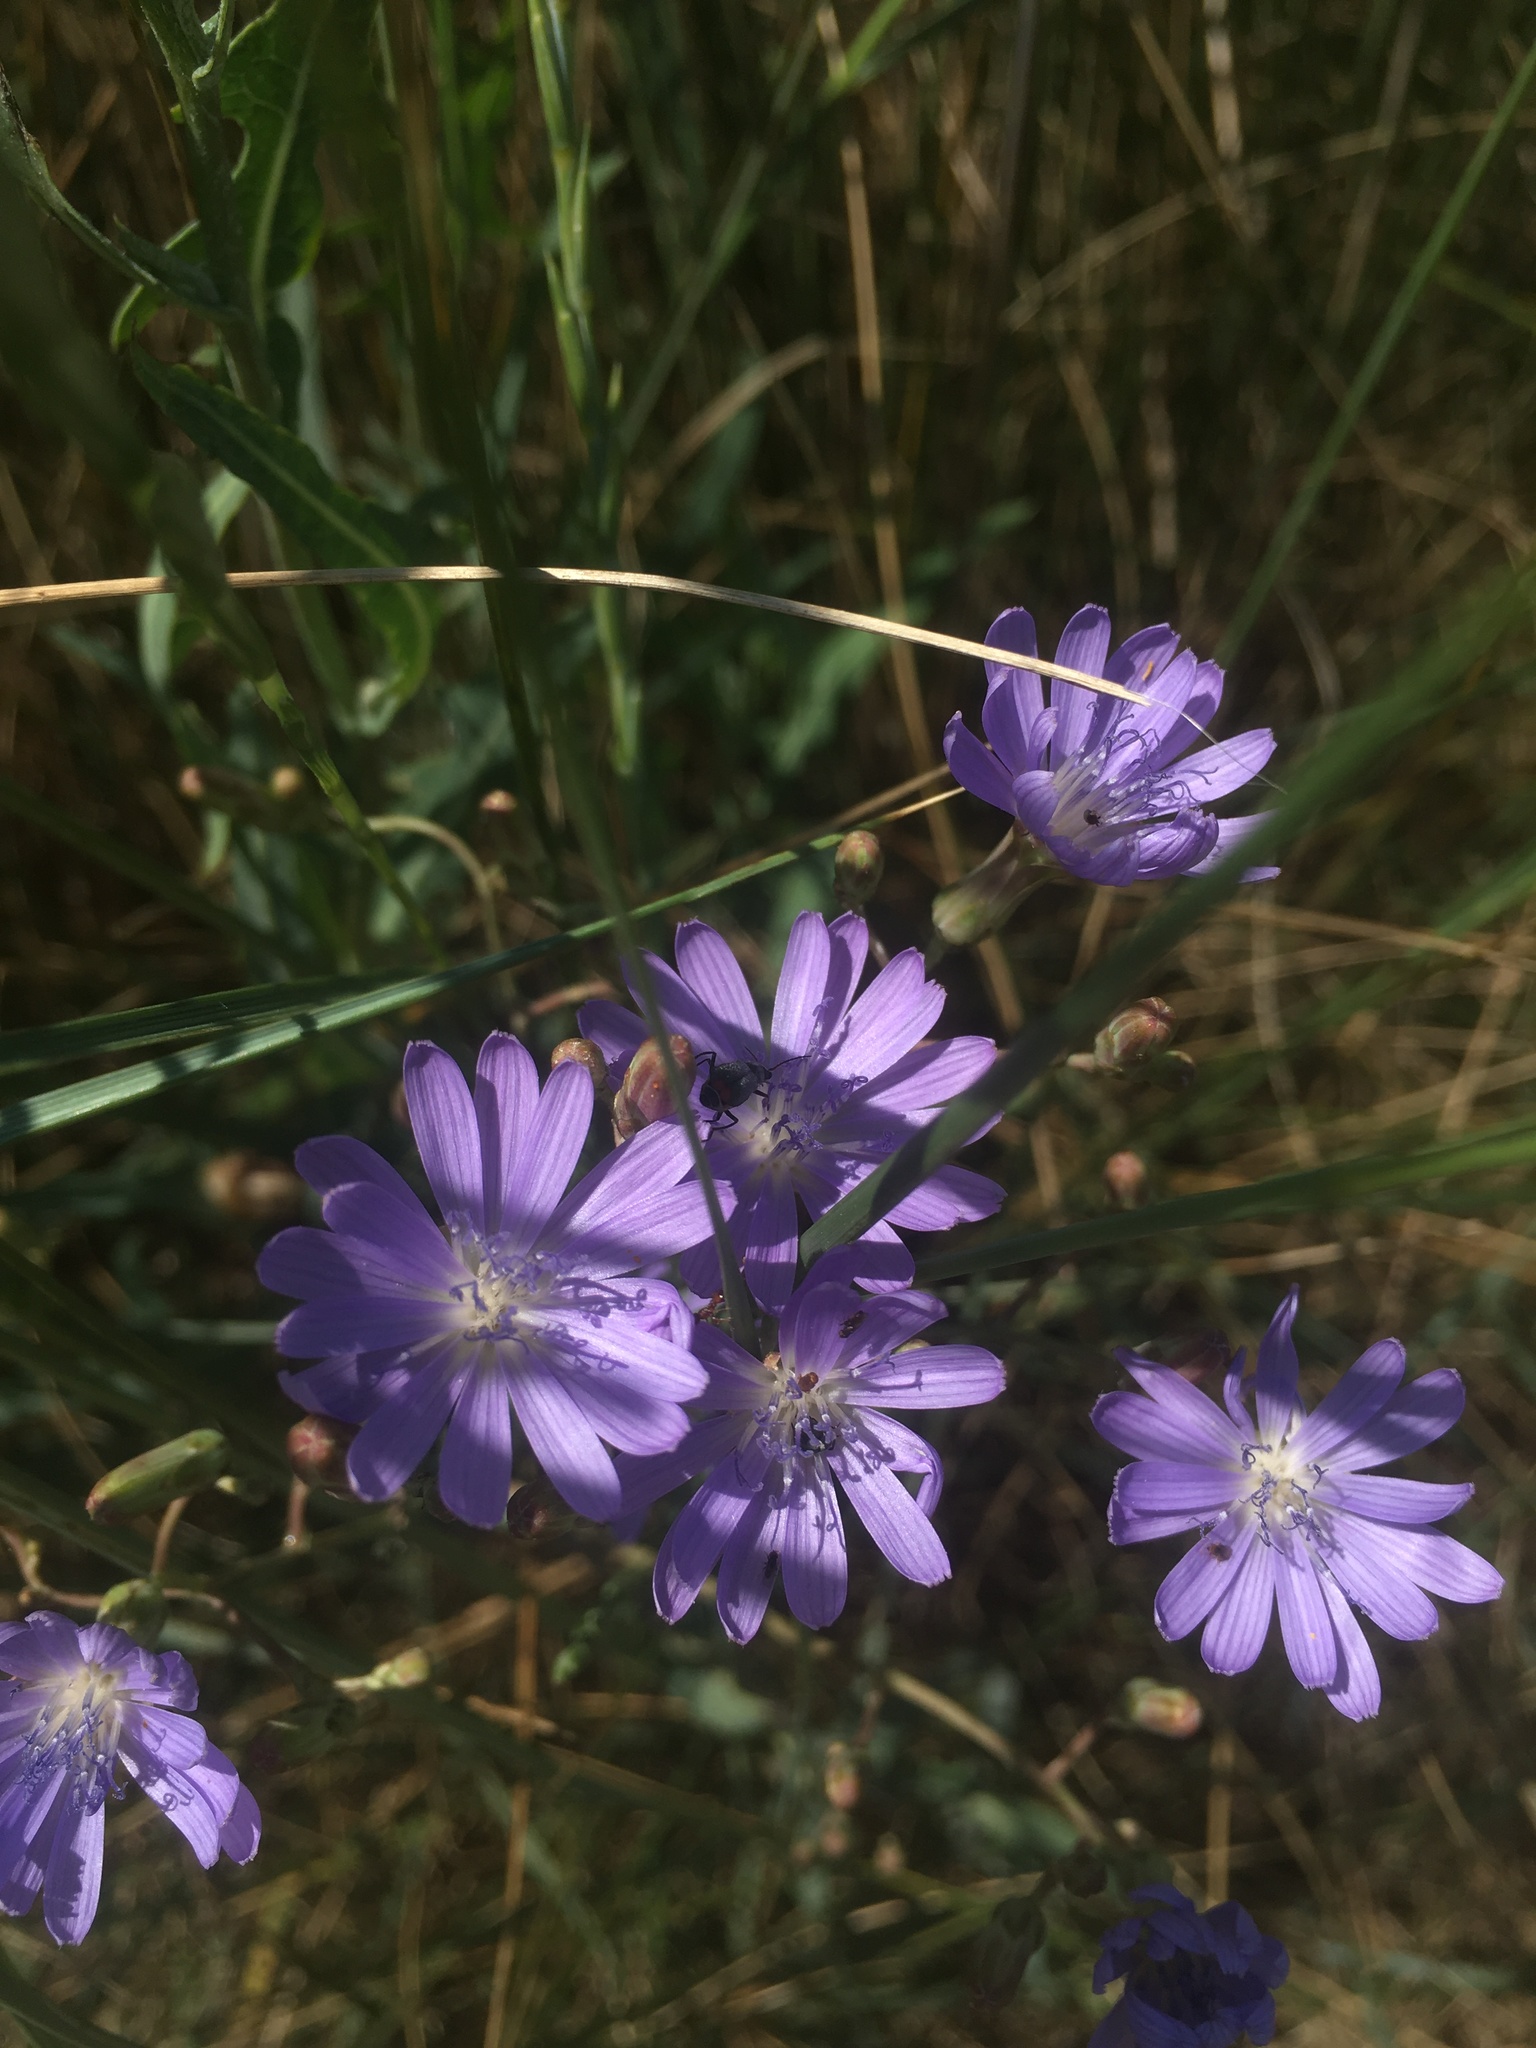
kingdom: Plantae
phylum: Tracheophyta
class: Magnoliopsida
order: Asterales
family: Asteraceae
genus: Lactuca
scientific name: Lactuca tatarica
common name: Blue lettuce
